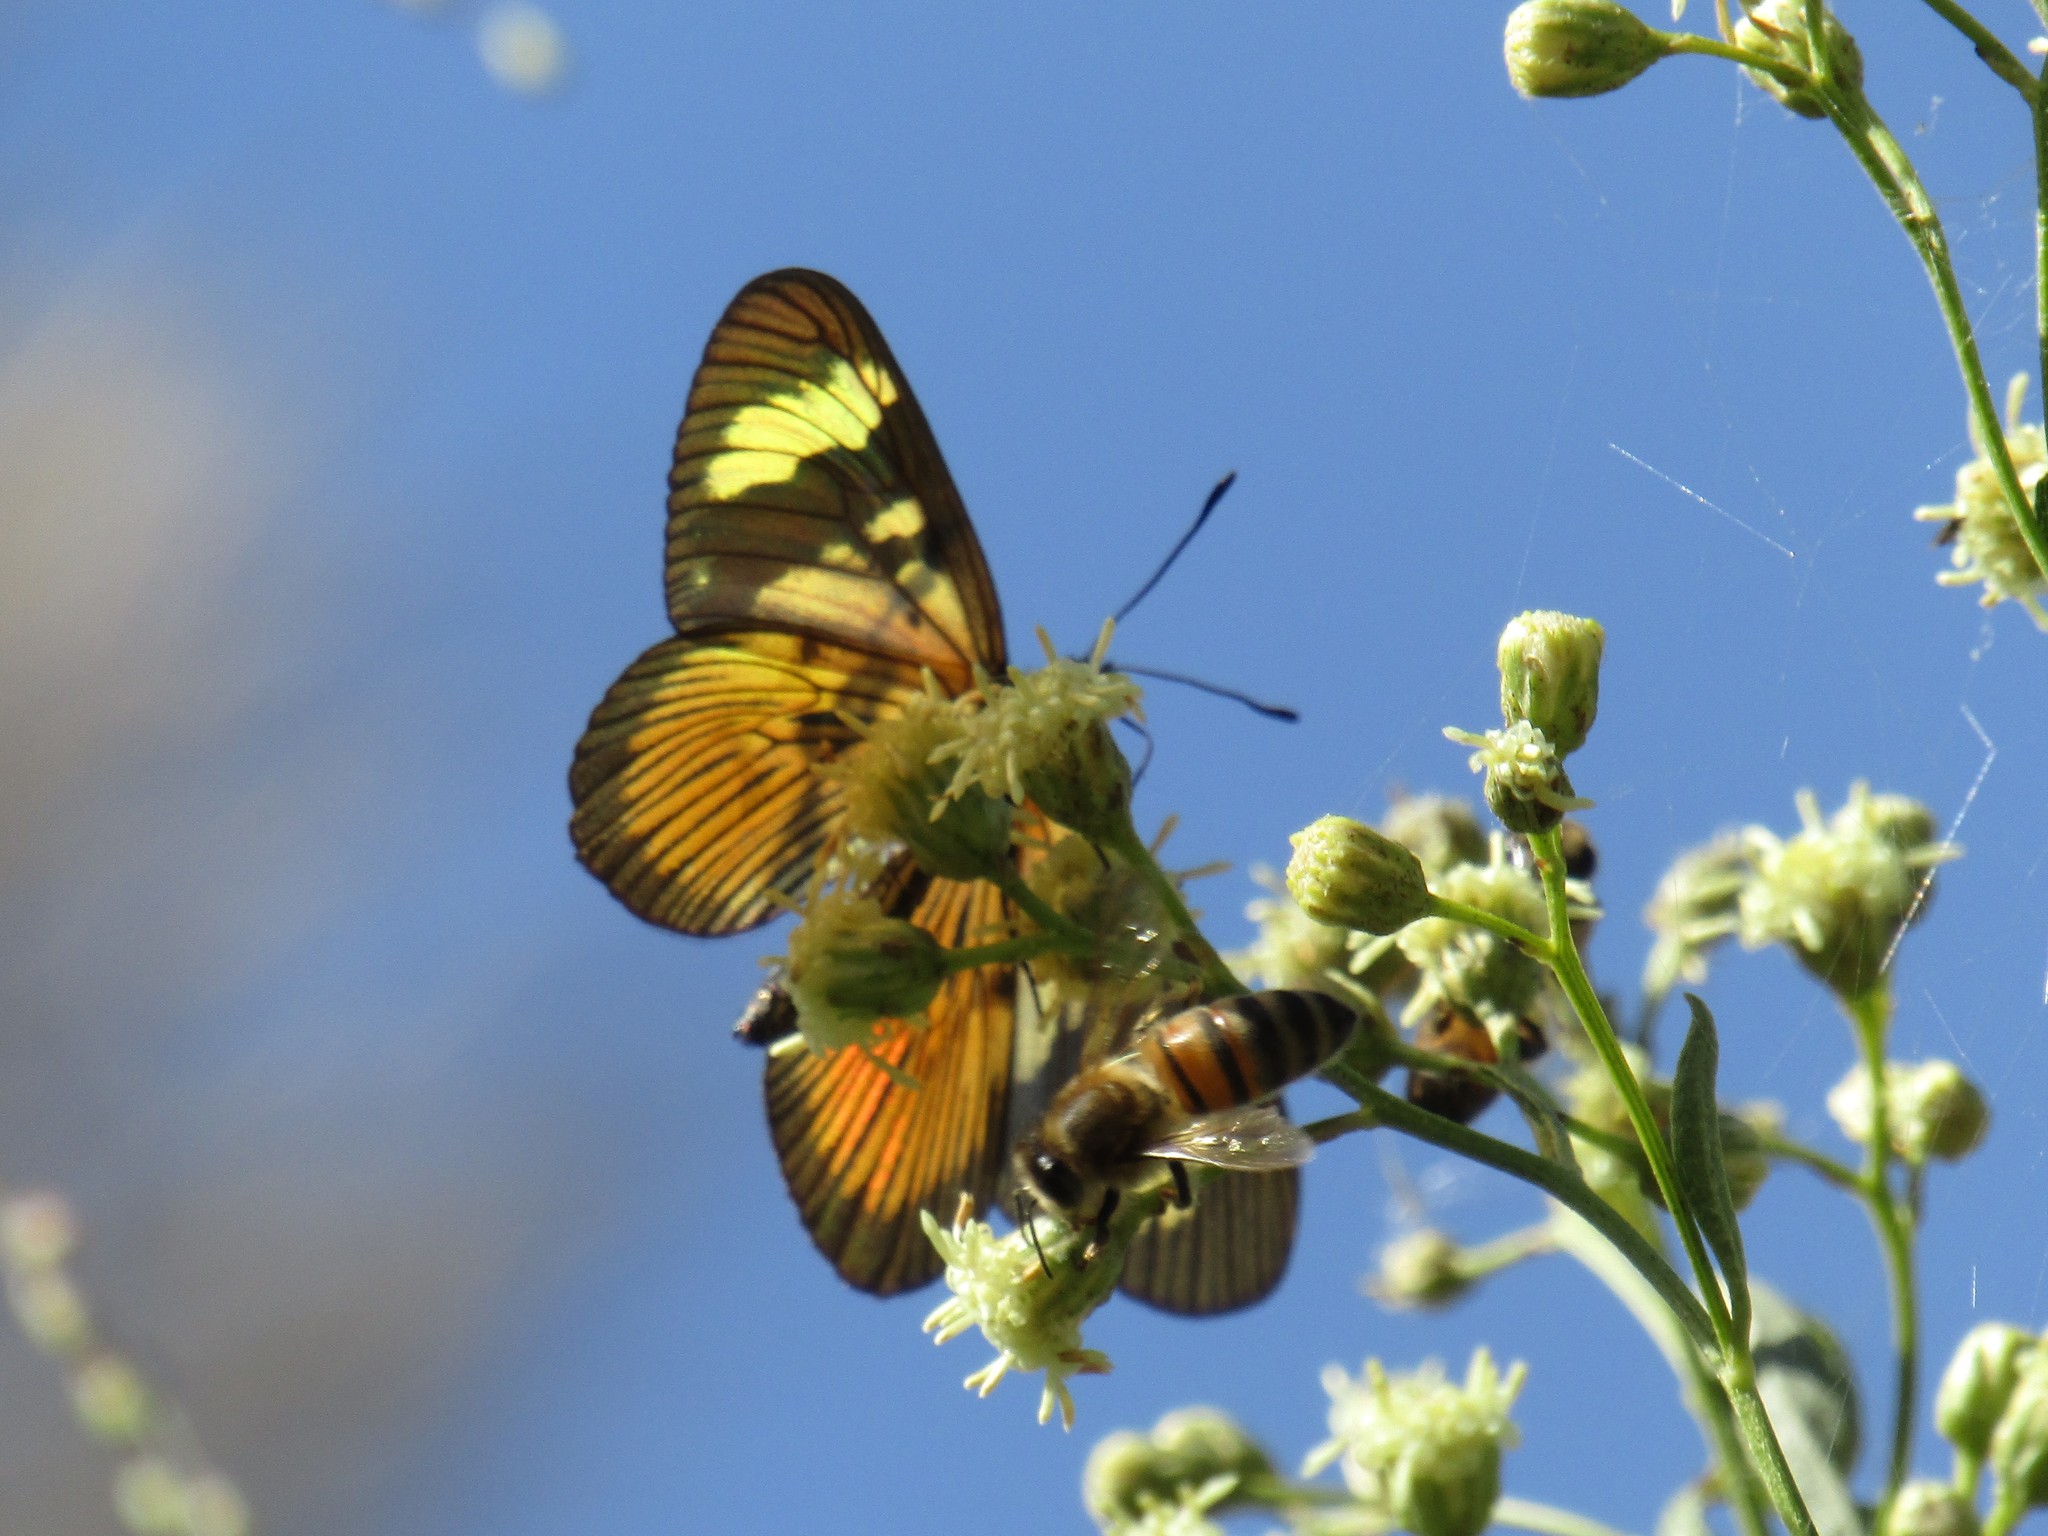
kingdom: Animalia
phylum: Arthropoda
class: Insecta
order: Lepidoptera
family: Nymphalidae
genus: Actinote
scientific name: Actinote pellenea
